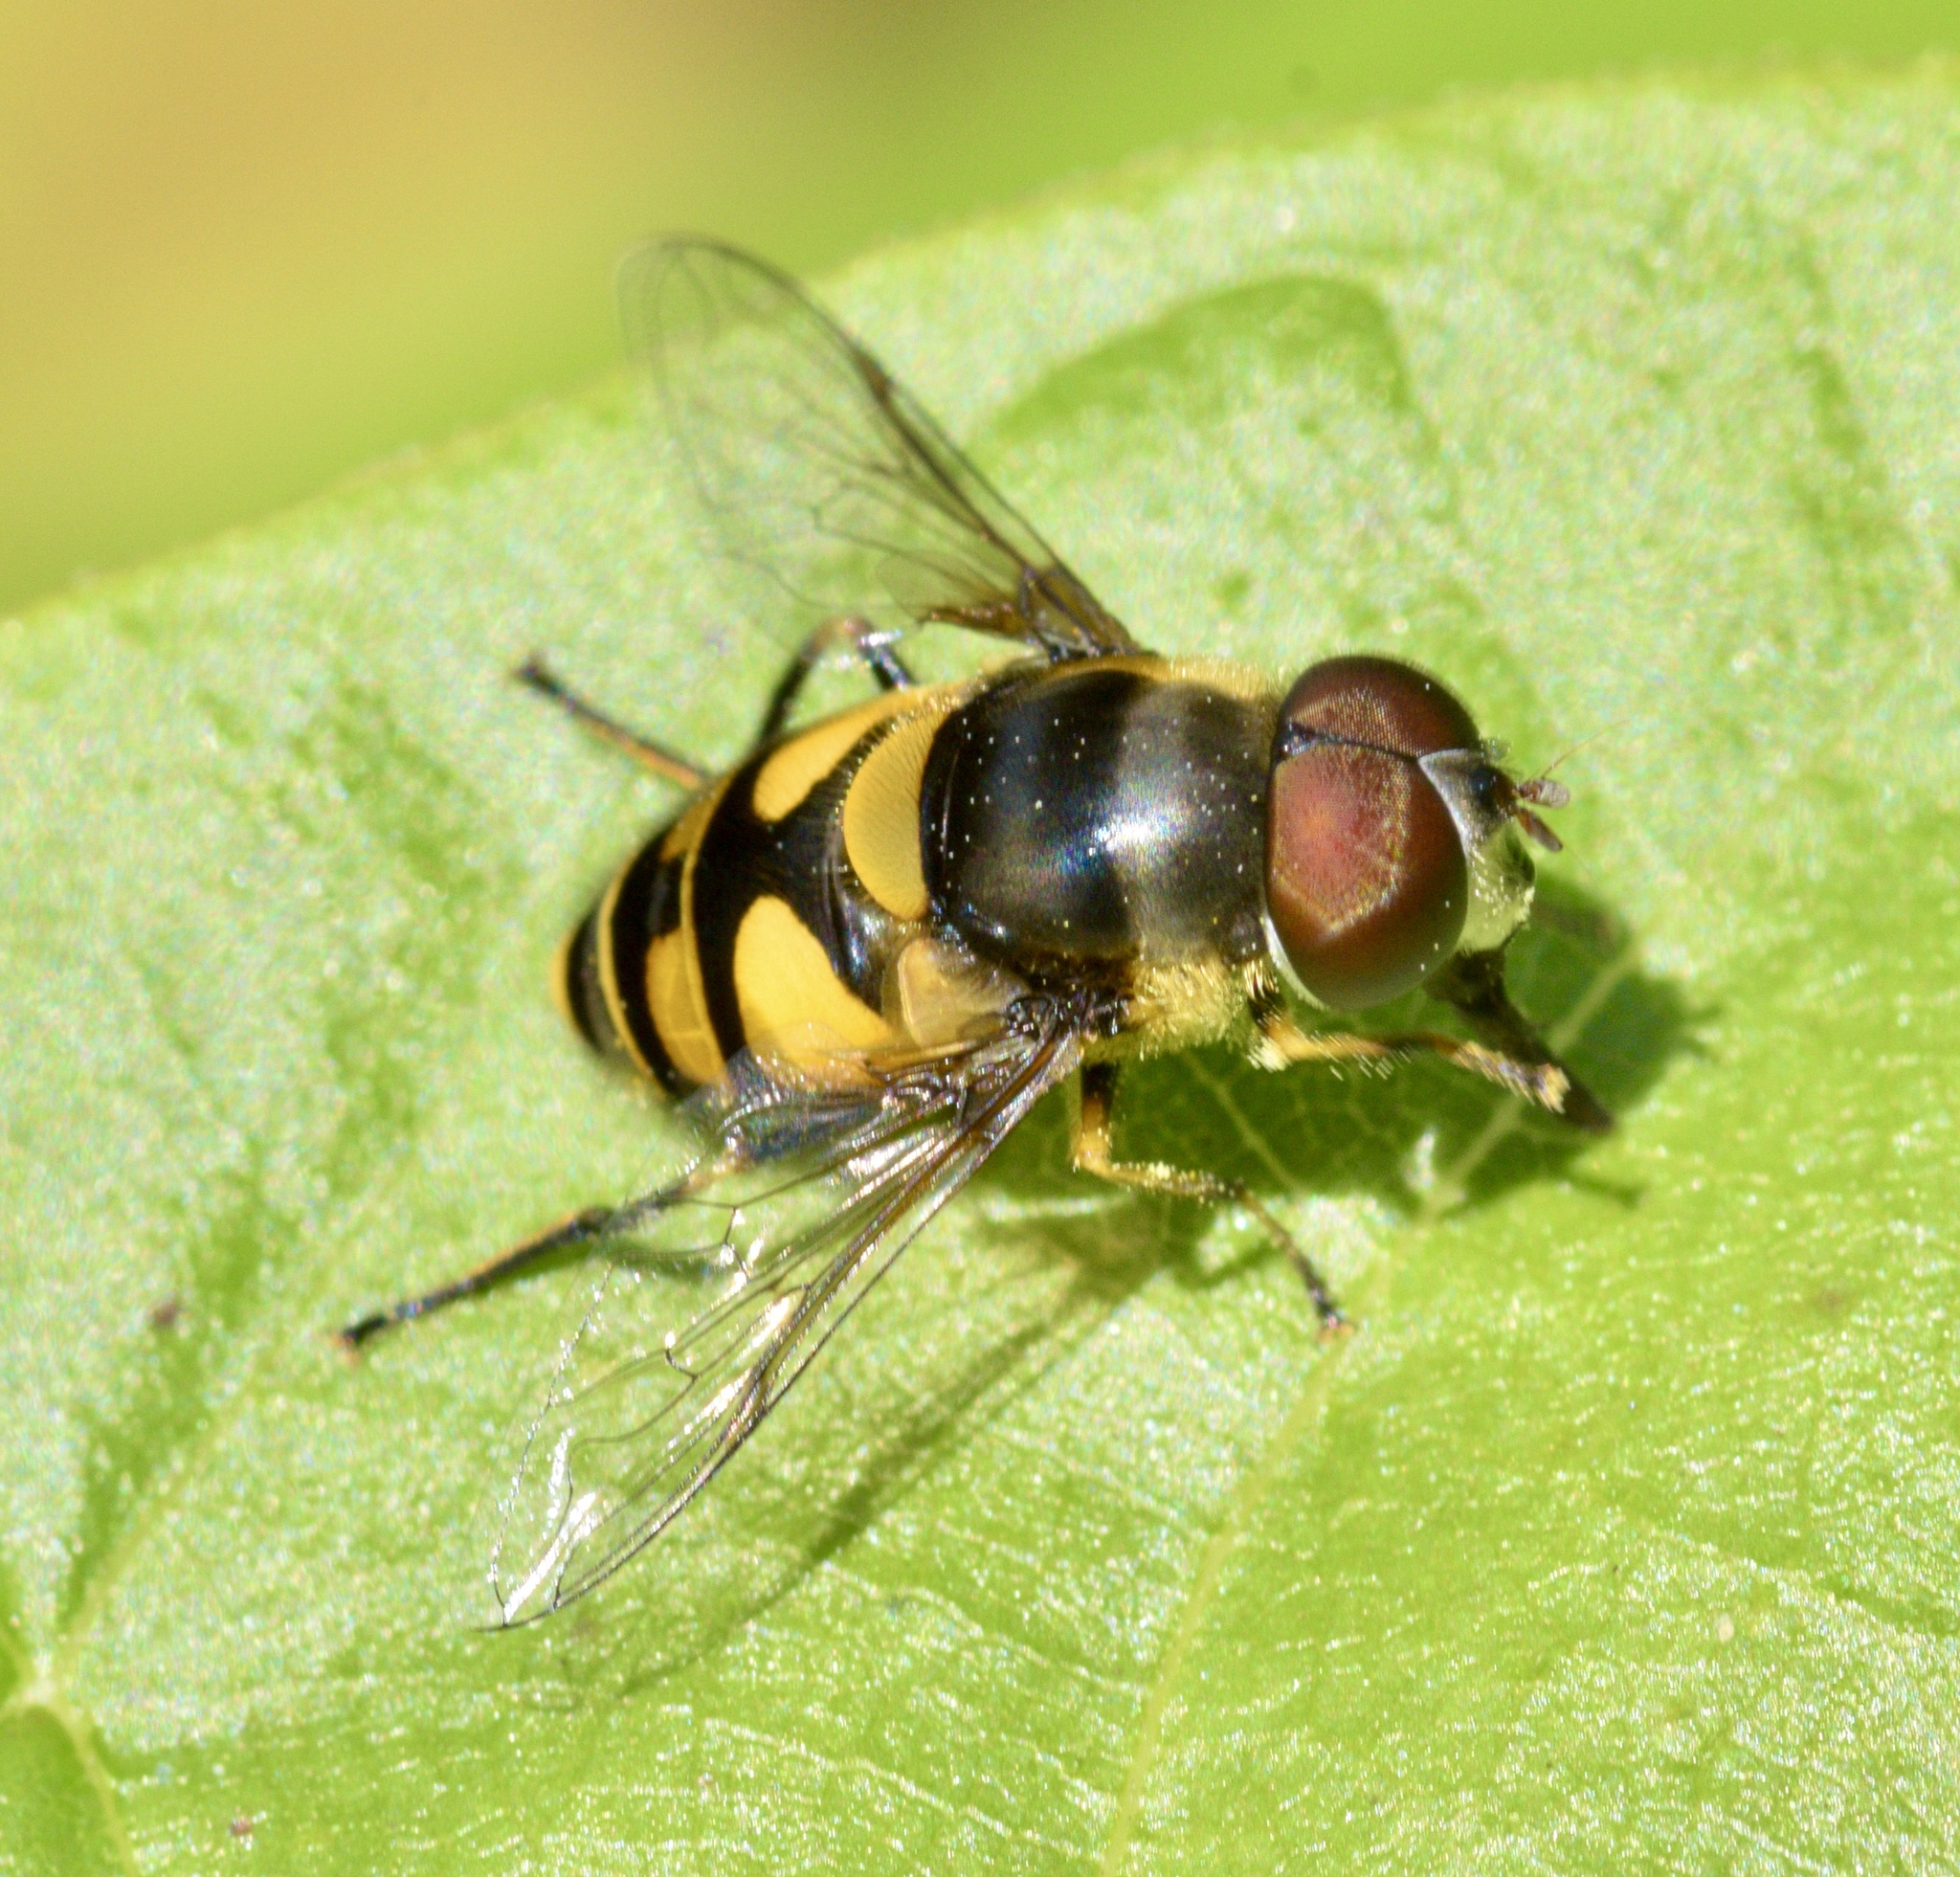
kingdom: Animalia
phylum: Arthropoda
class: Insecta
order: Diptera
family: Syrphidae
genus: Eristalis
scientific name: Eristalis transversa
